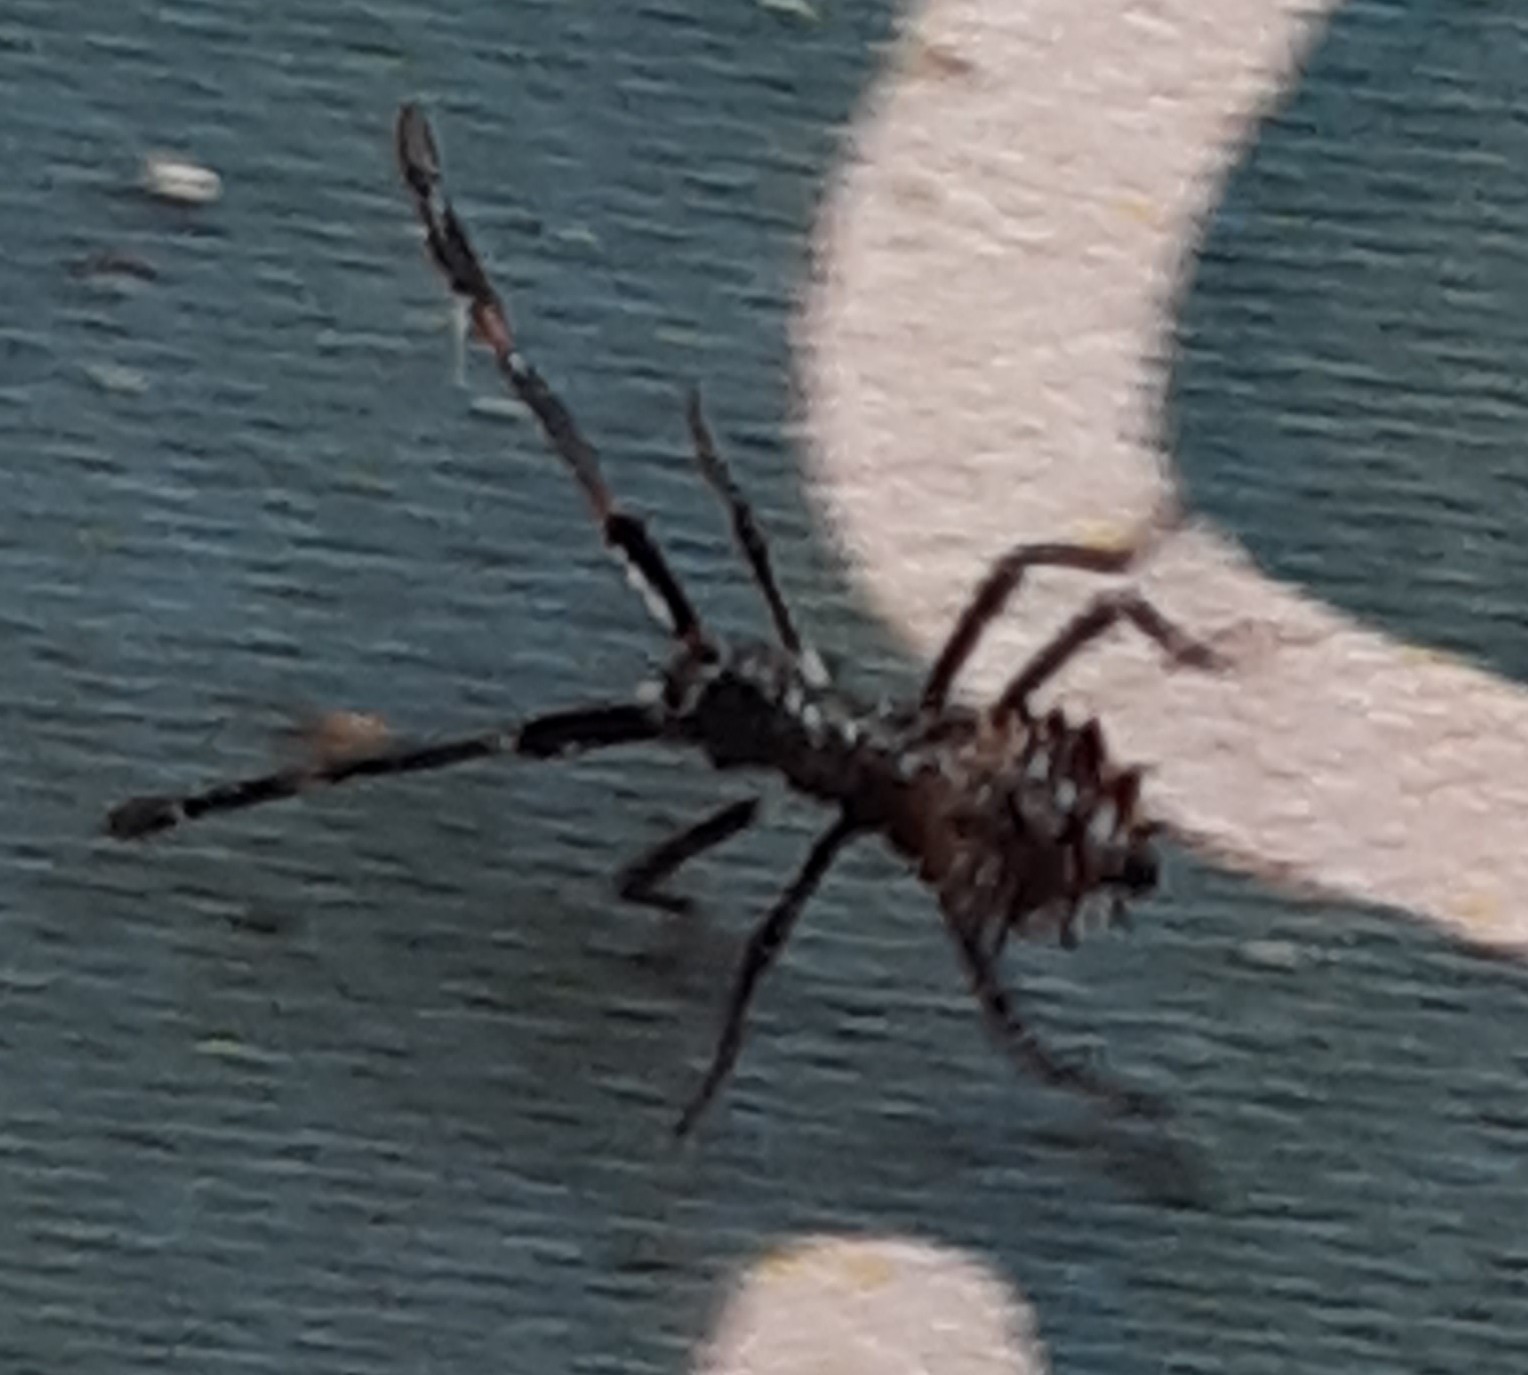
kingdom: Animalia
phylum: Arthropoda
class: Insecta
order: Hemiptera
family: Coreidae
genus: Coreus
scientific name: Coreus marginatus
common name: Dock bug
